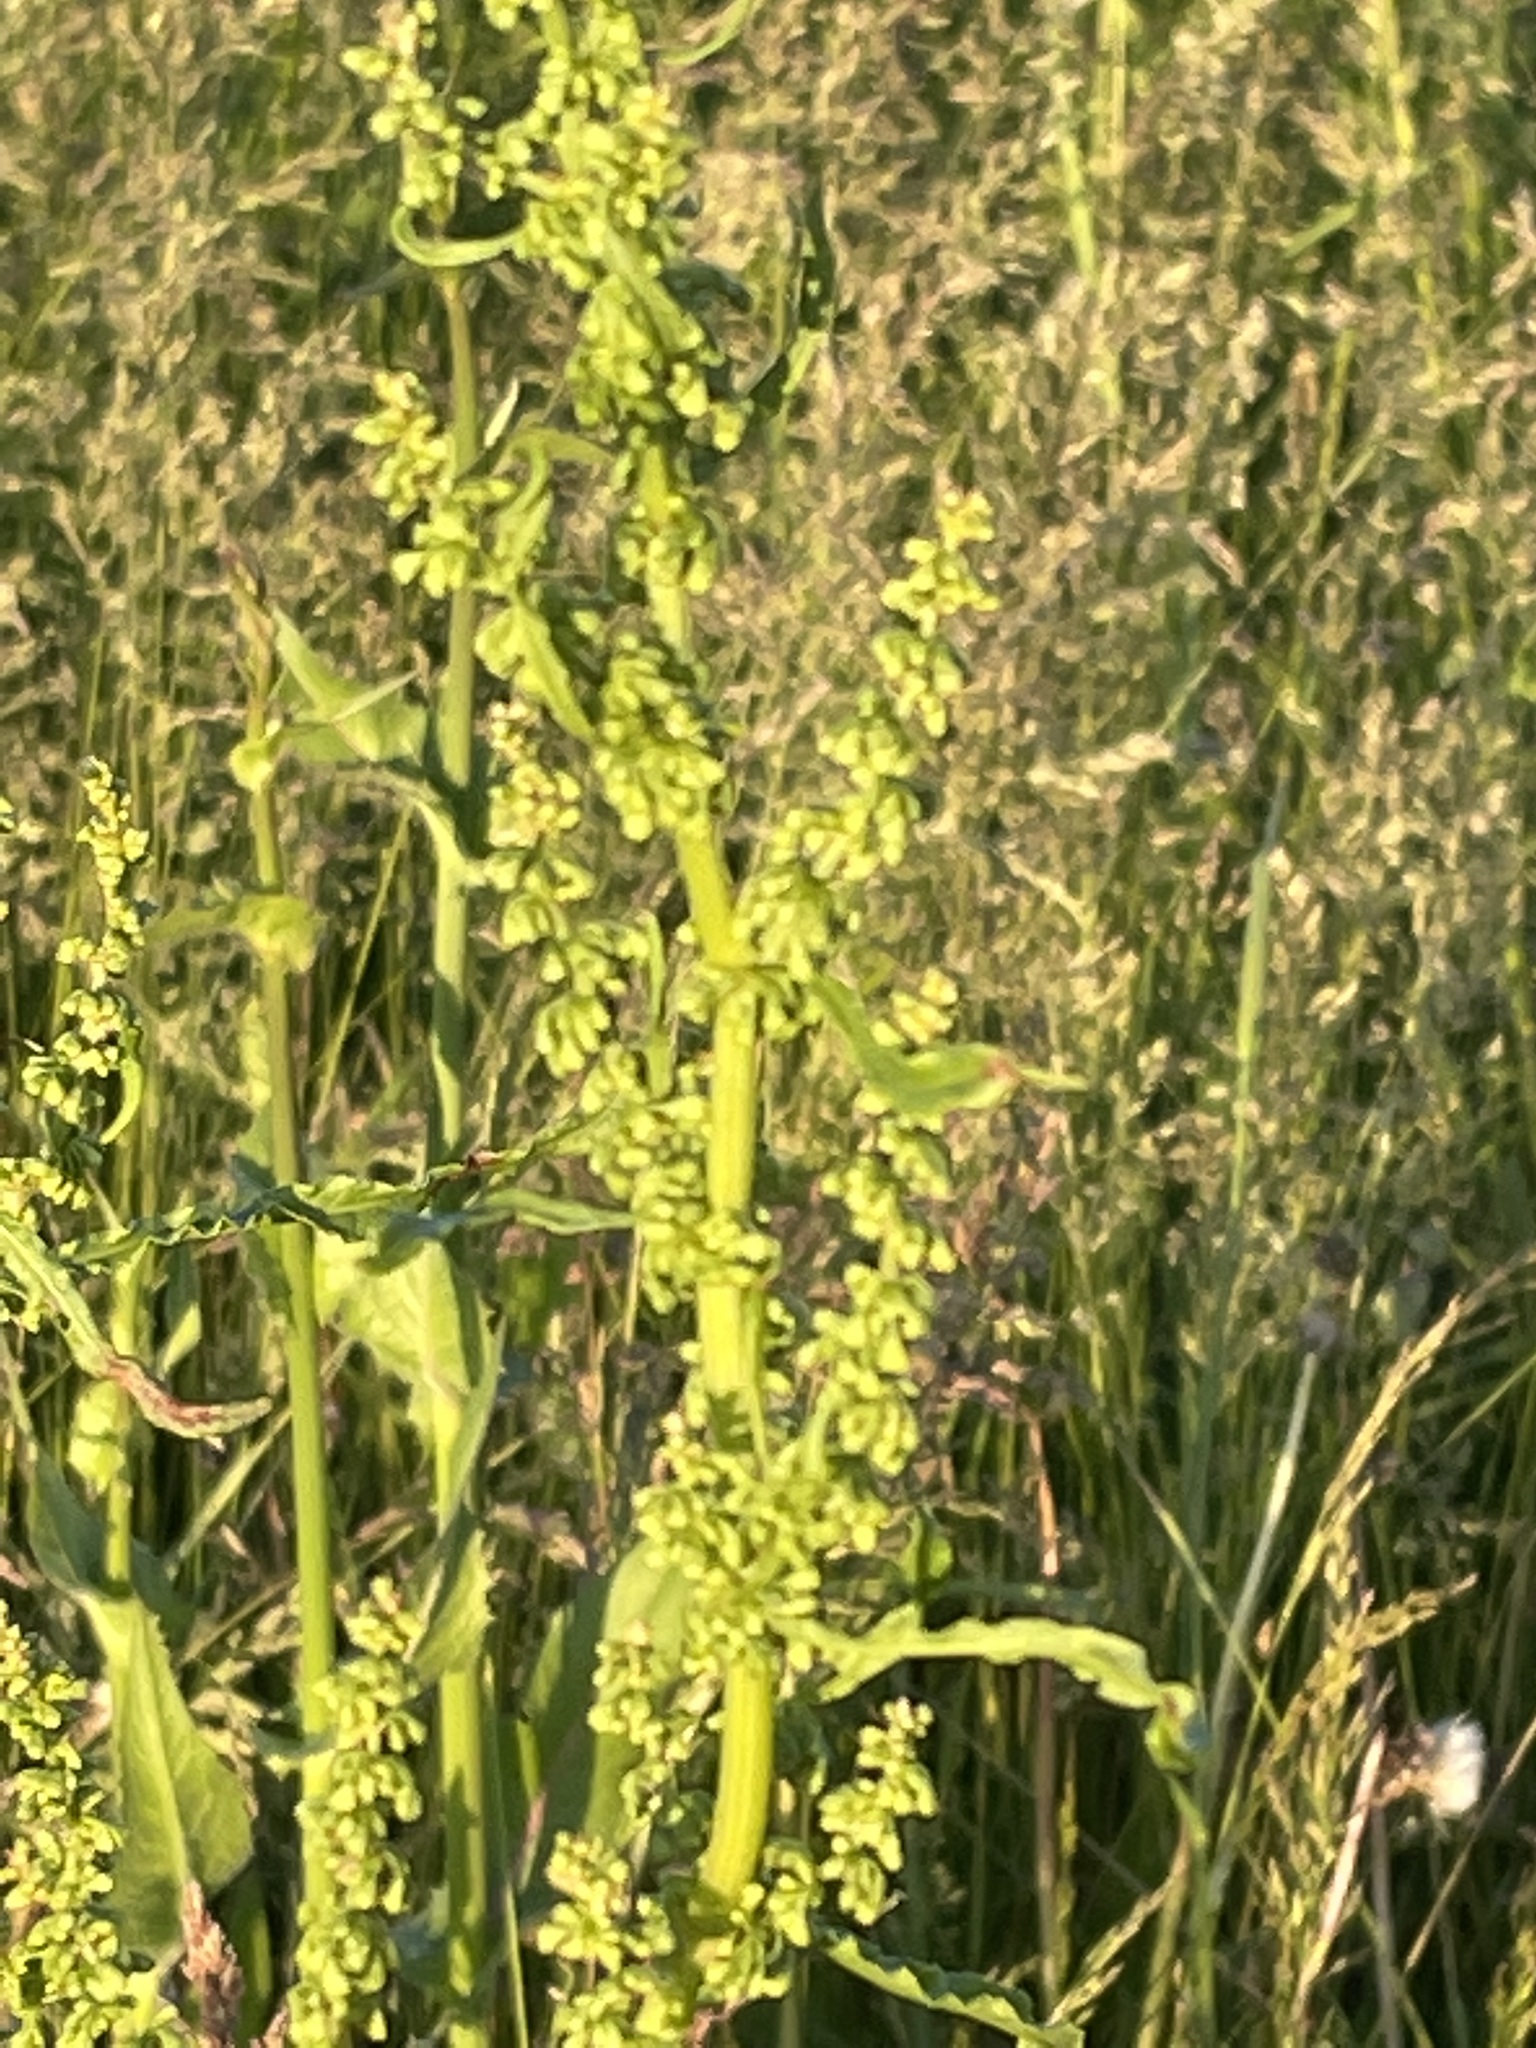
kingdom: Plantae
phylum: Tracheophyta
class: Magnoliopsida
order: Caryophyllales
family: Polygonaceae
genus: Rumex
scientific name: Rumex crispus
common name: Curled dock
